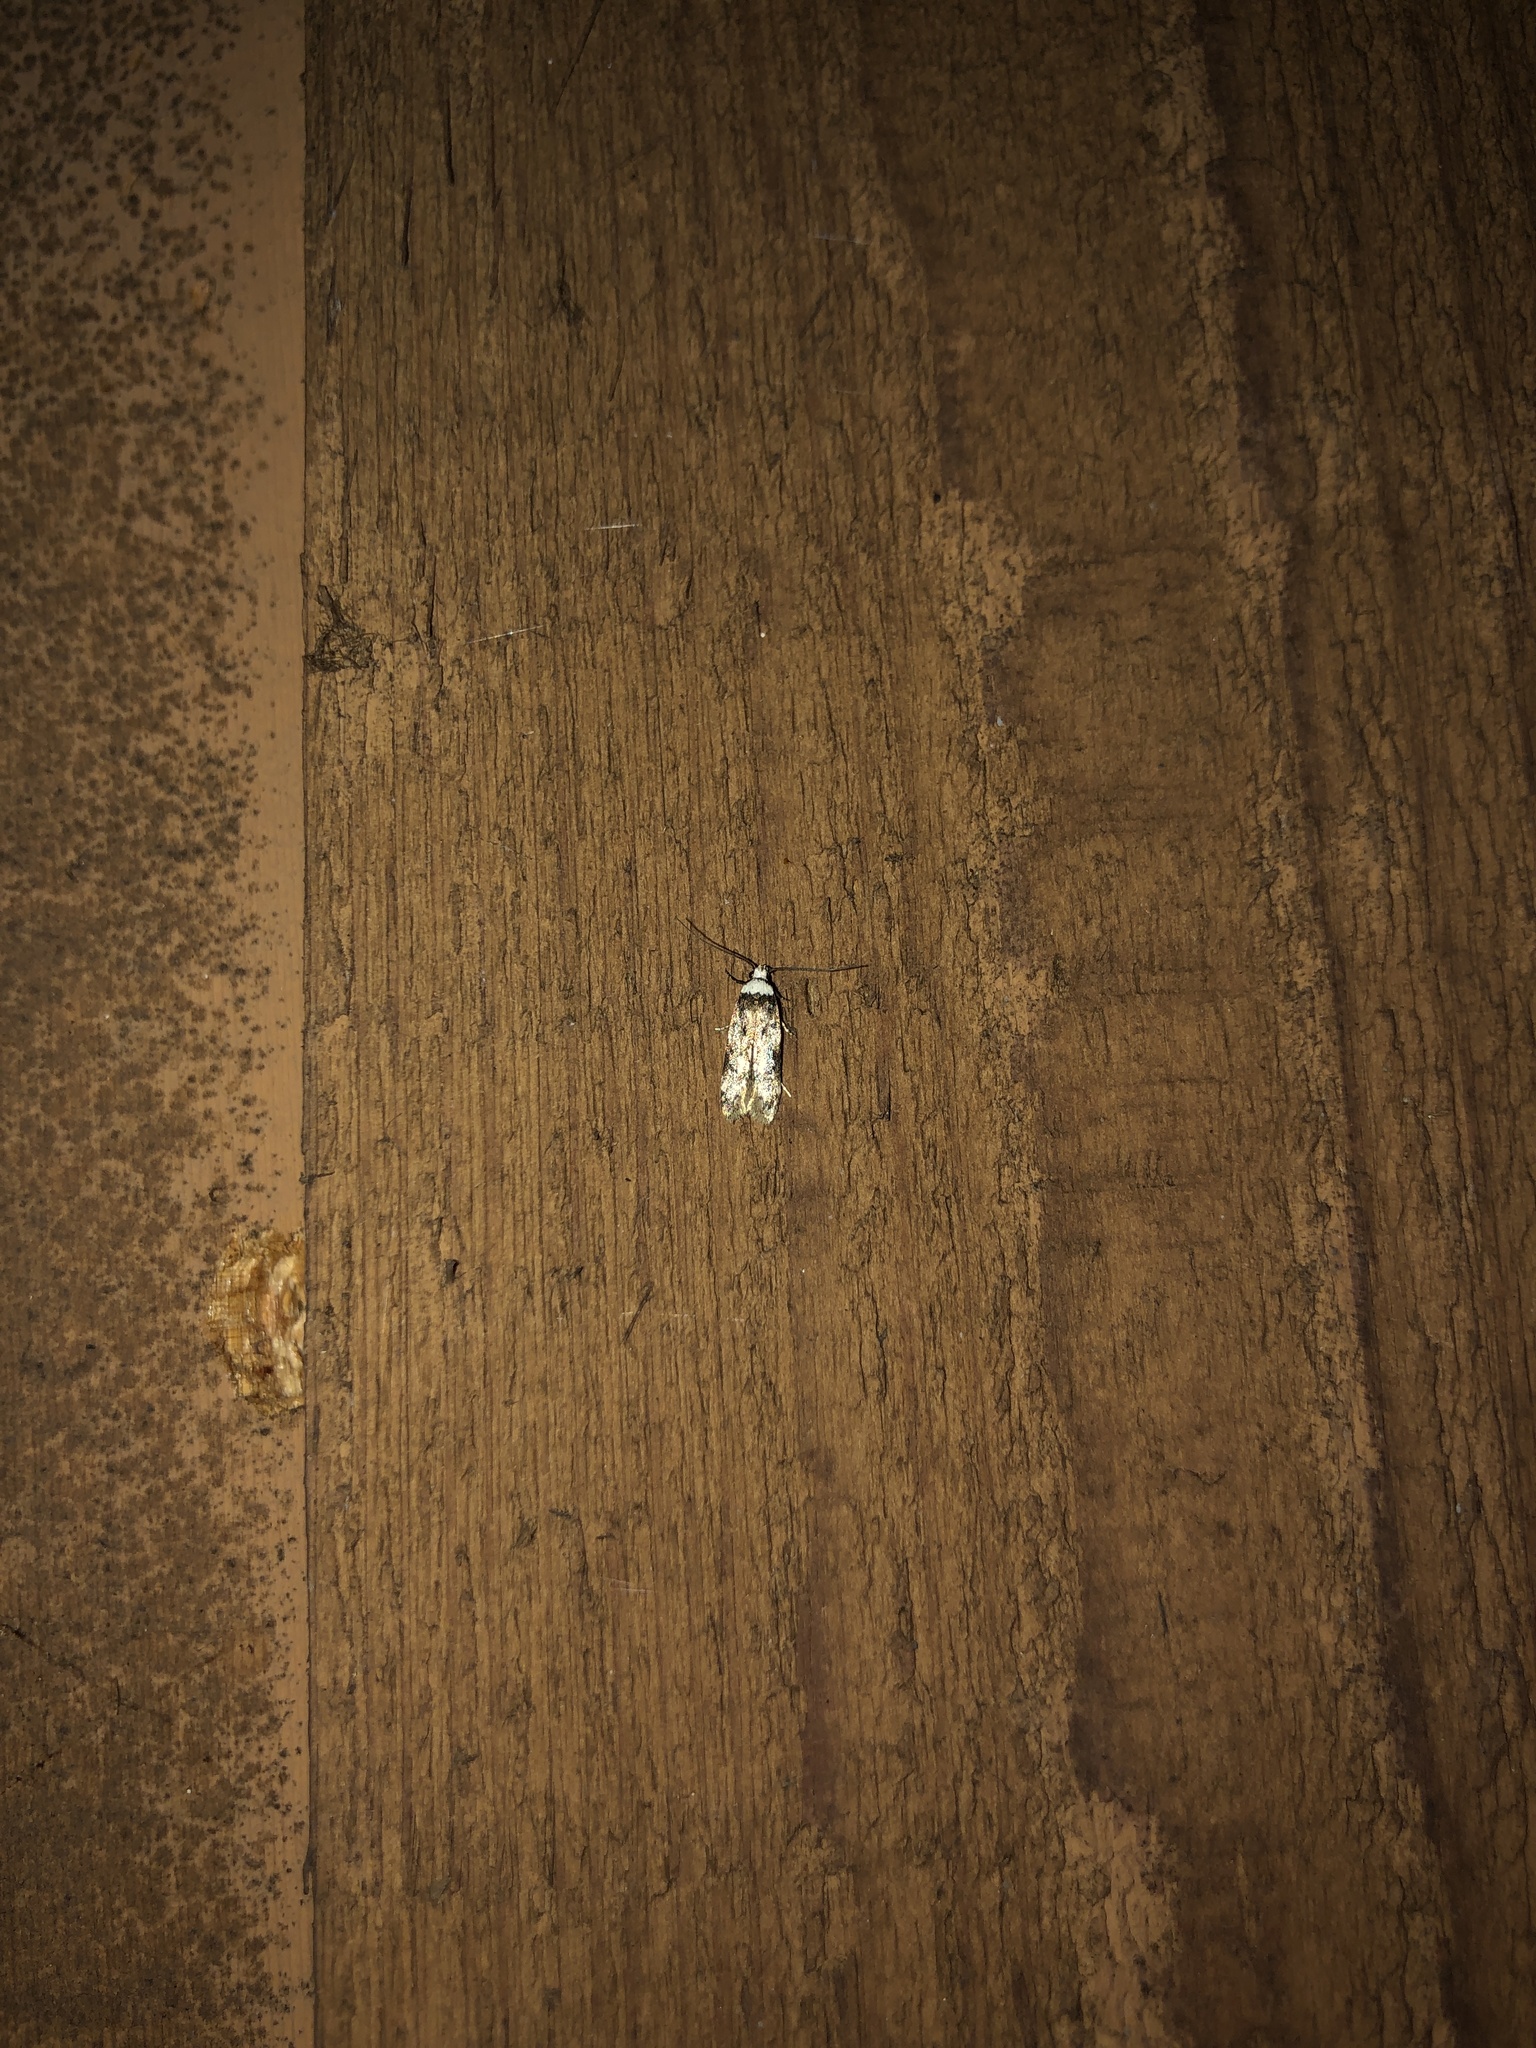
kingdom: Animalia
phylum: Arthropoda
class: Insecta
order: Lepidoptera
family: Oecophoridae
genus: Endrosis
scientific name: Endrosis sarcitrella
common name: White-shouldered house moth
